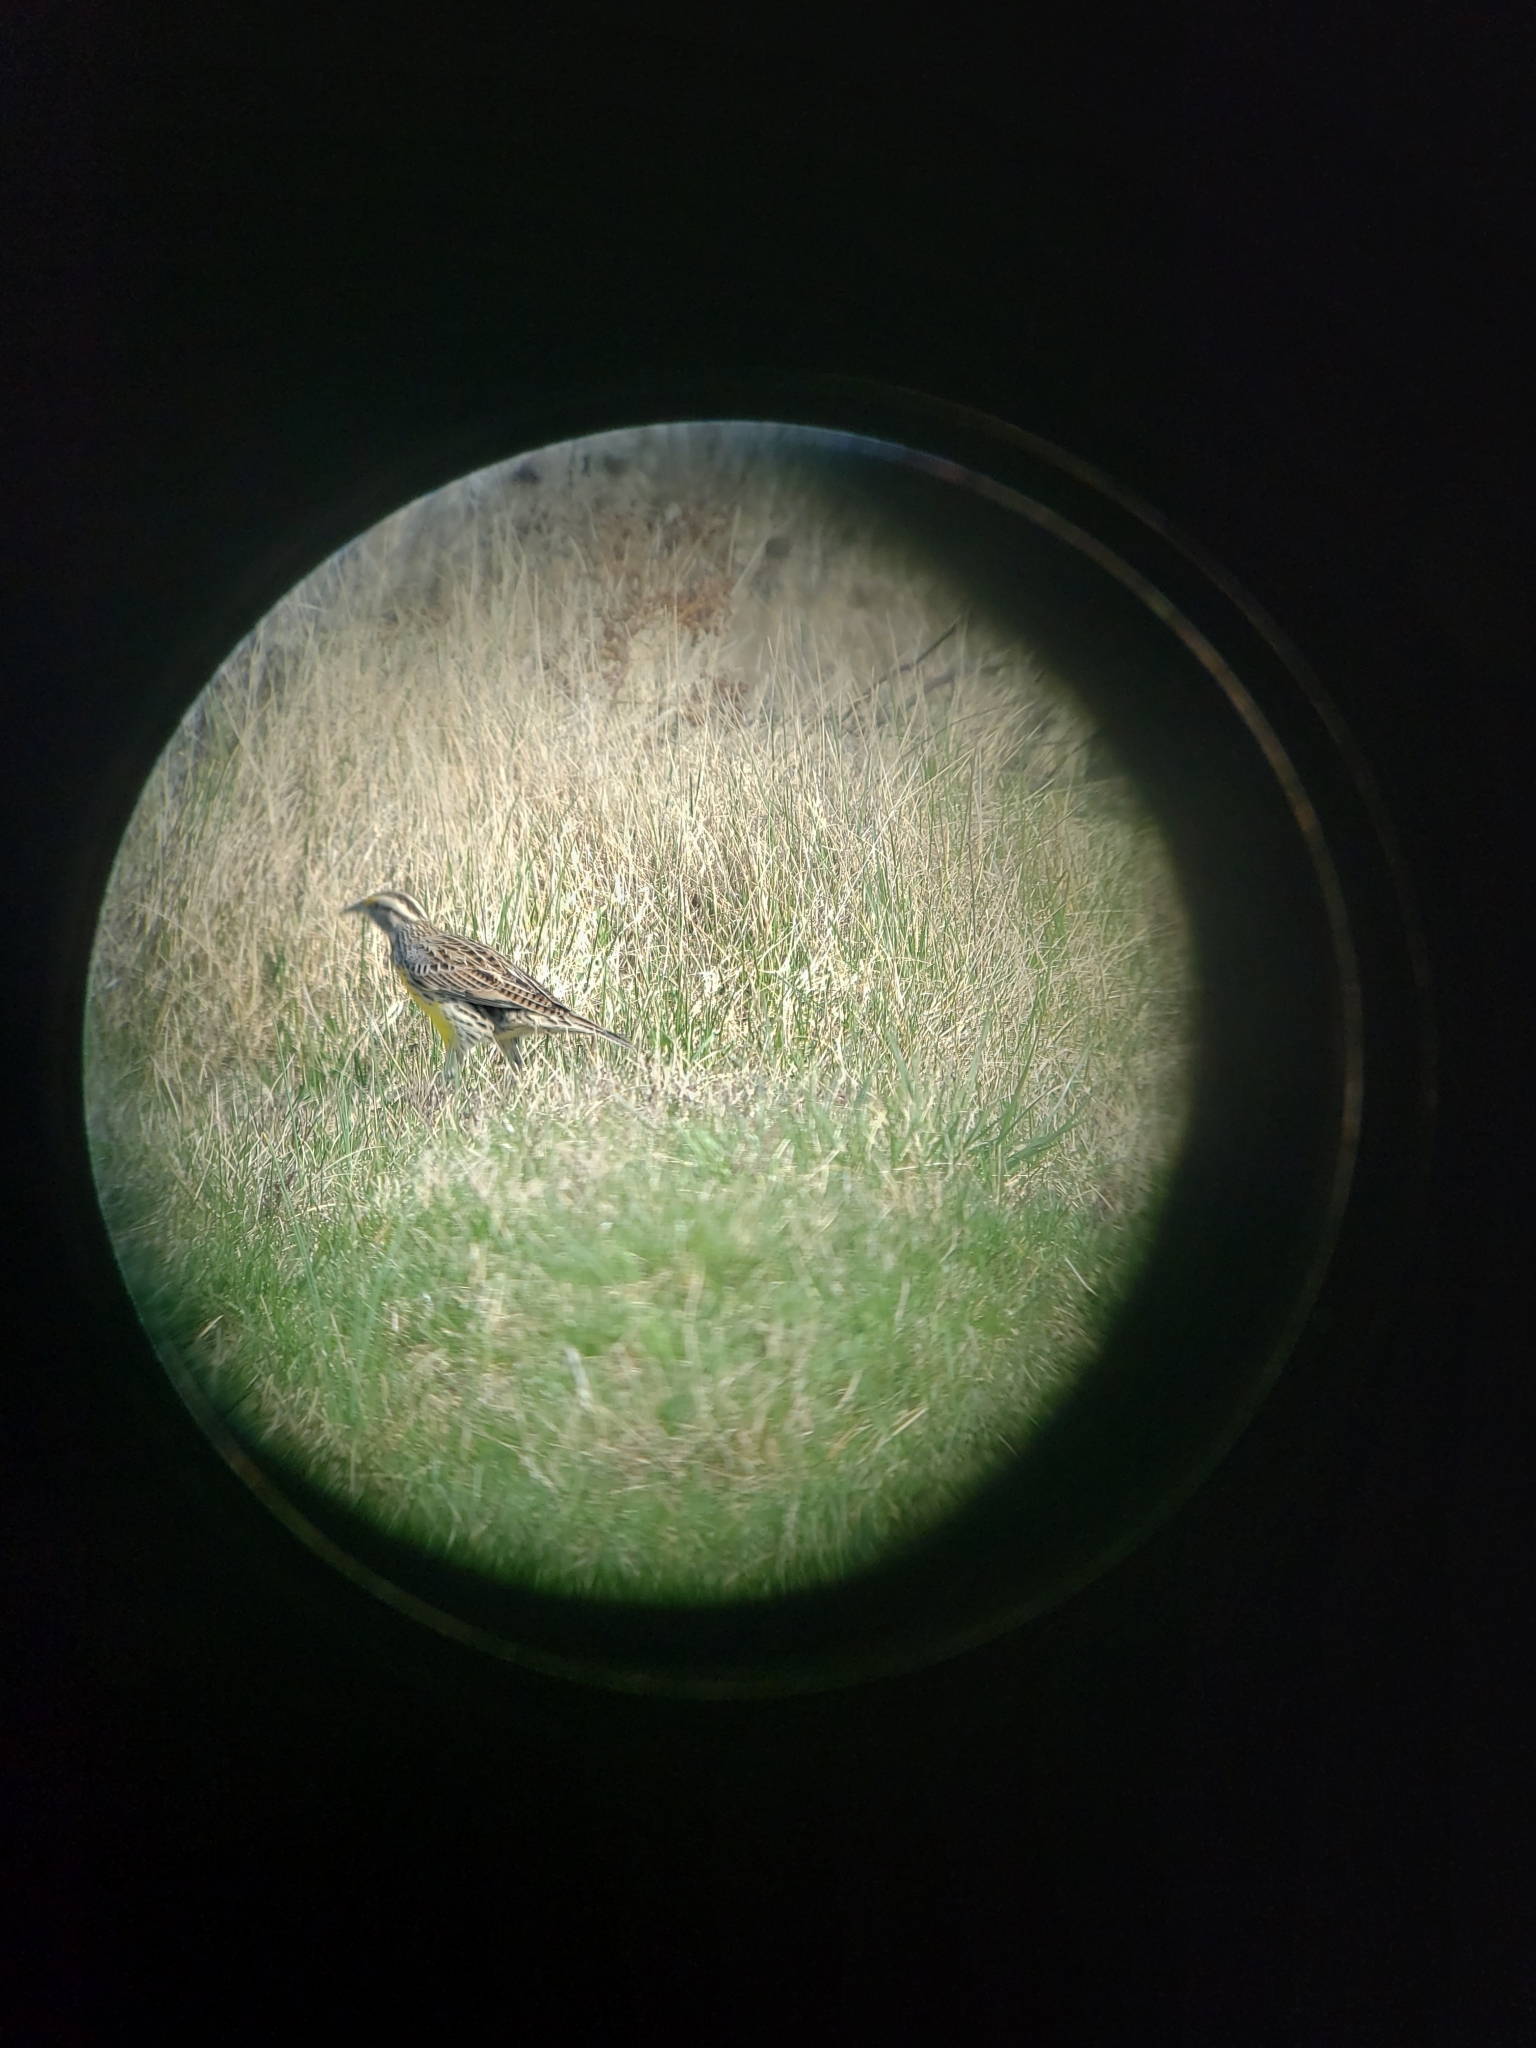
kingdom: Animalia
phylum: Chordata
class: Aves
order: Passeriformes
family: Icteridae
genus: Sturnella
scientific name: Sturnella magna
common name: Eastern meadowlark
